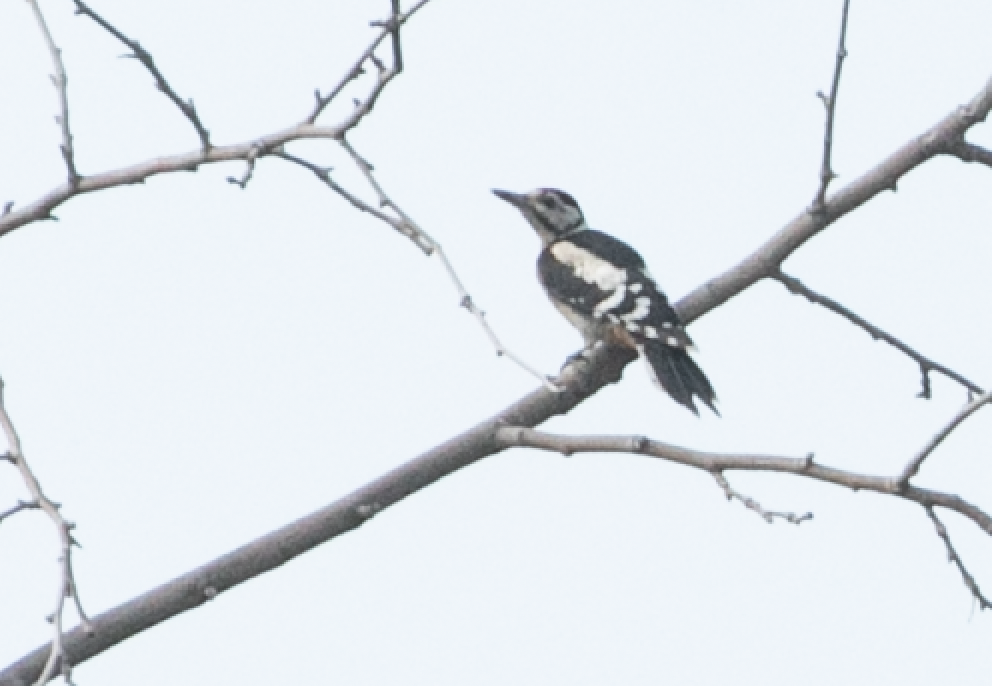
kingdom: Animalia
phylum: Chordata
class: Aves
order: Piciformes
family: Picidae
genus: Dendrocopos
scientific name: Dendrocopos major
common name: Great spotted woodpecker
